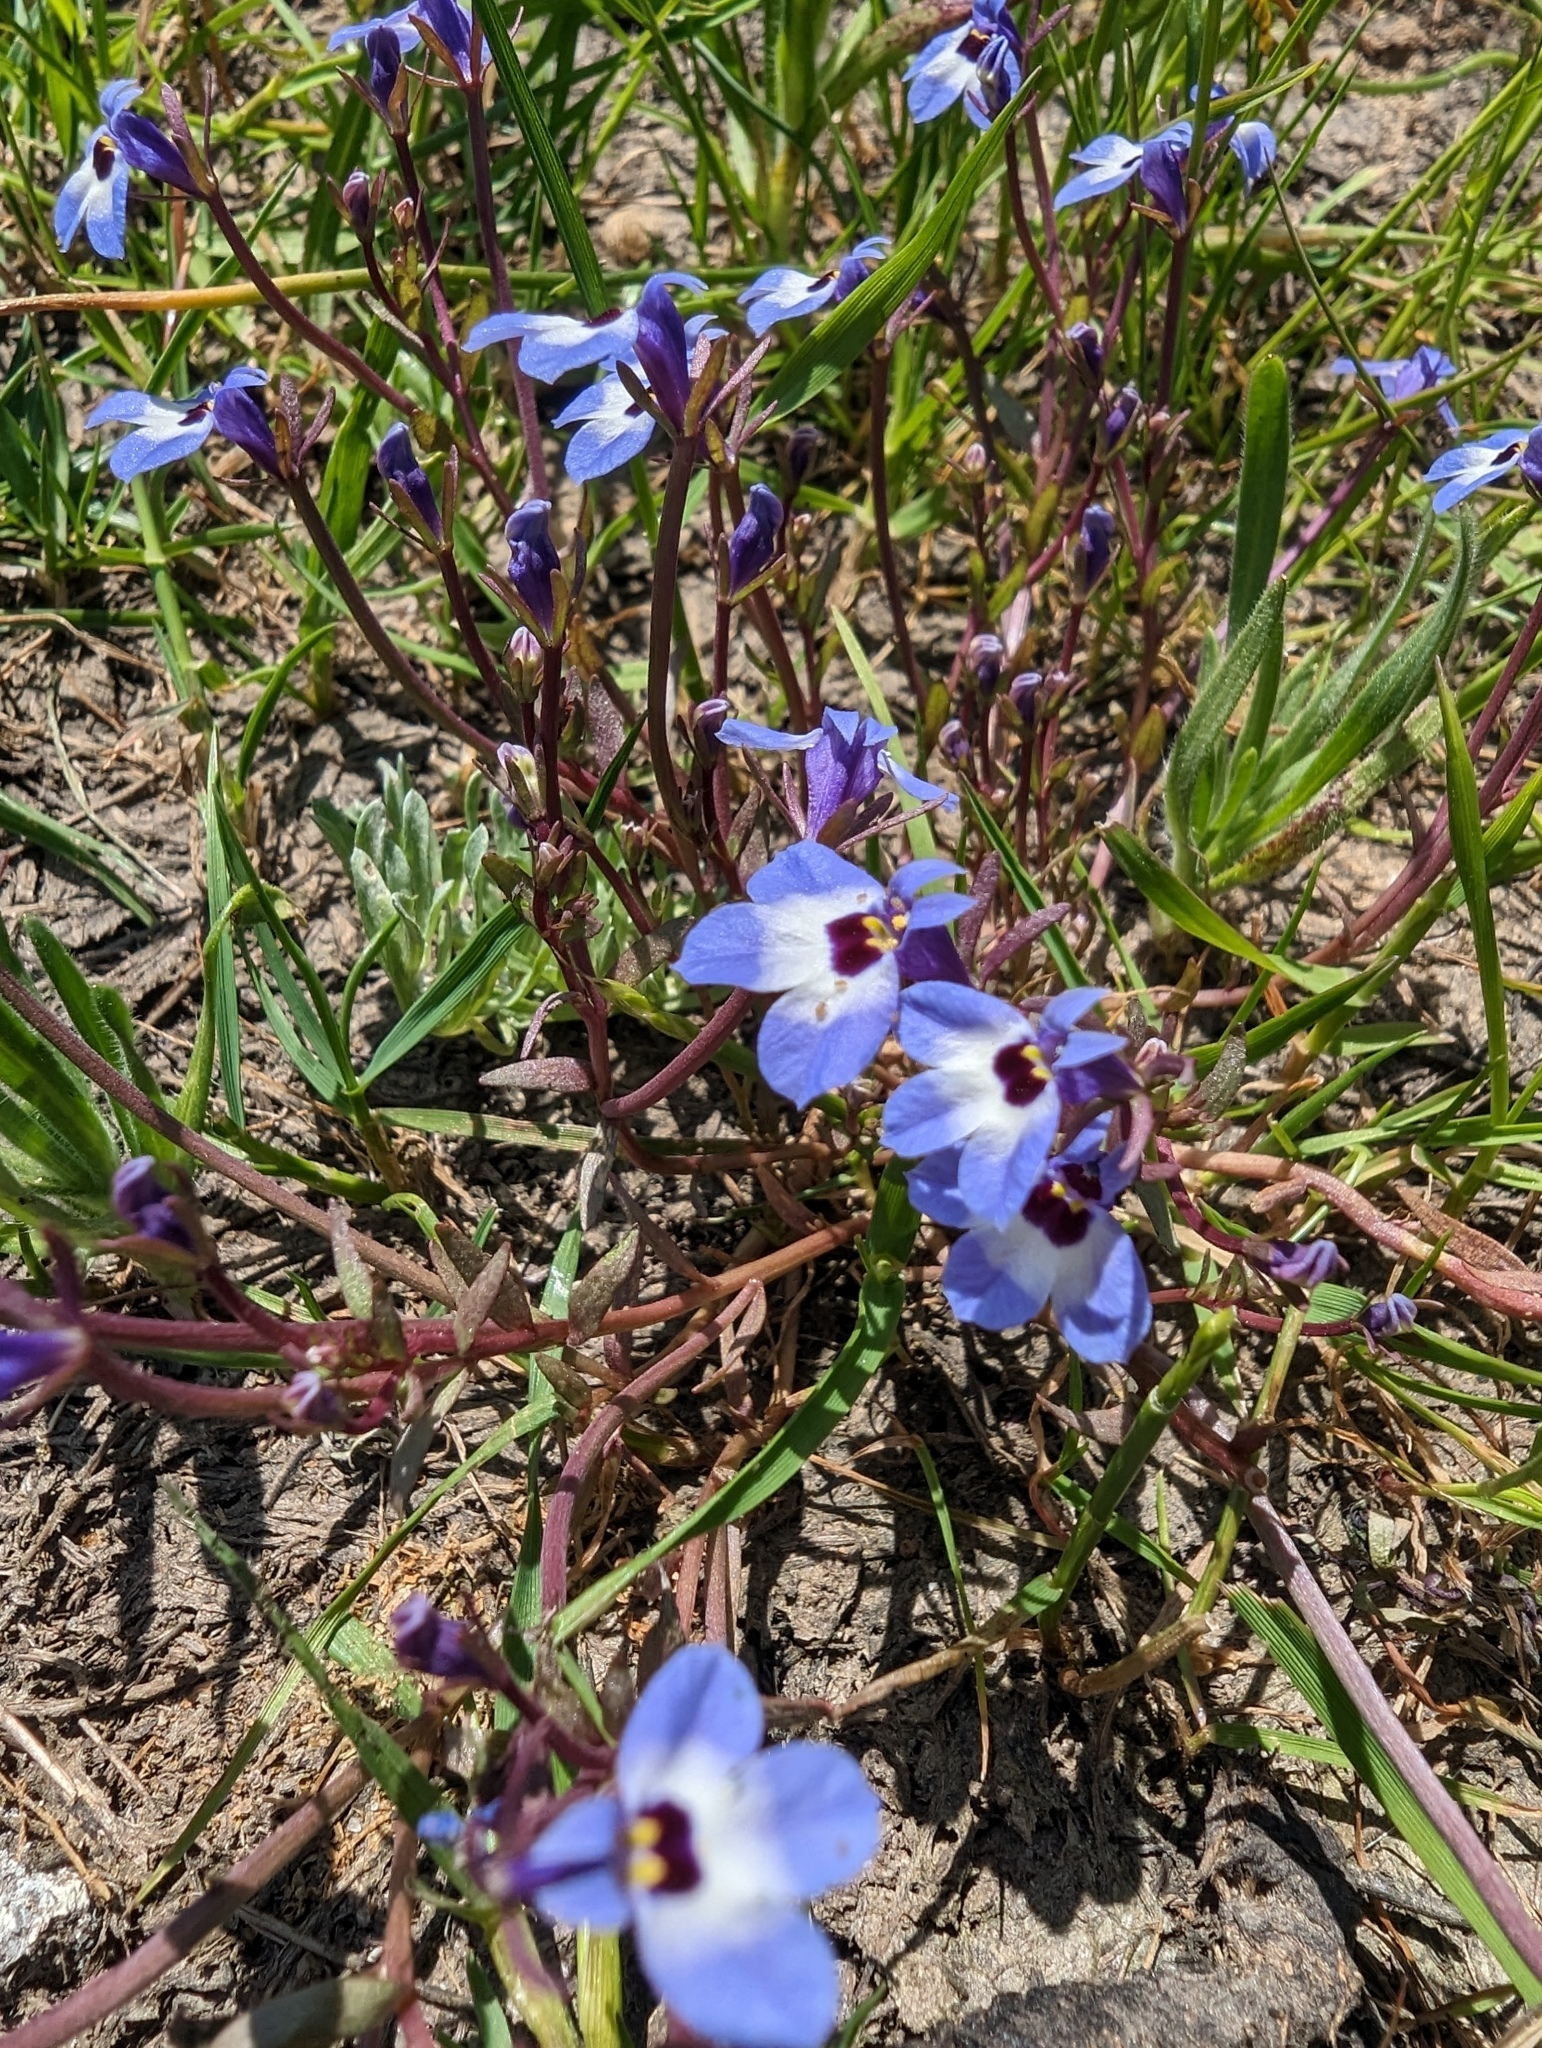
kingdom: Plantae
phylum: Tracheophyta
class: Magnoliopsida
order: Asterales
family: Campanulaceae
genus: Downingia
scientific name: Downingia concolor
